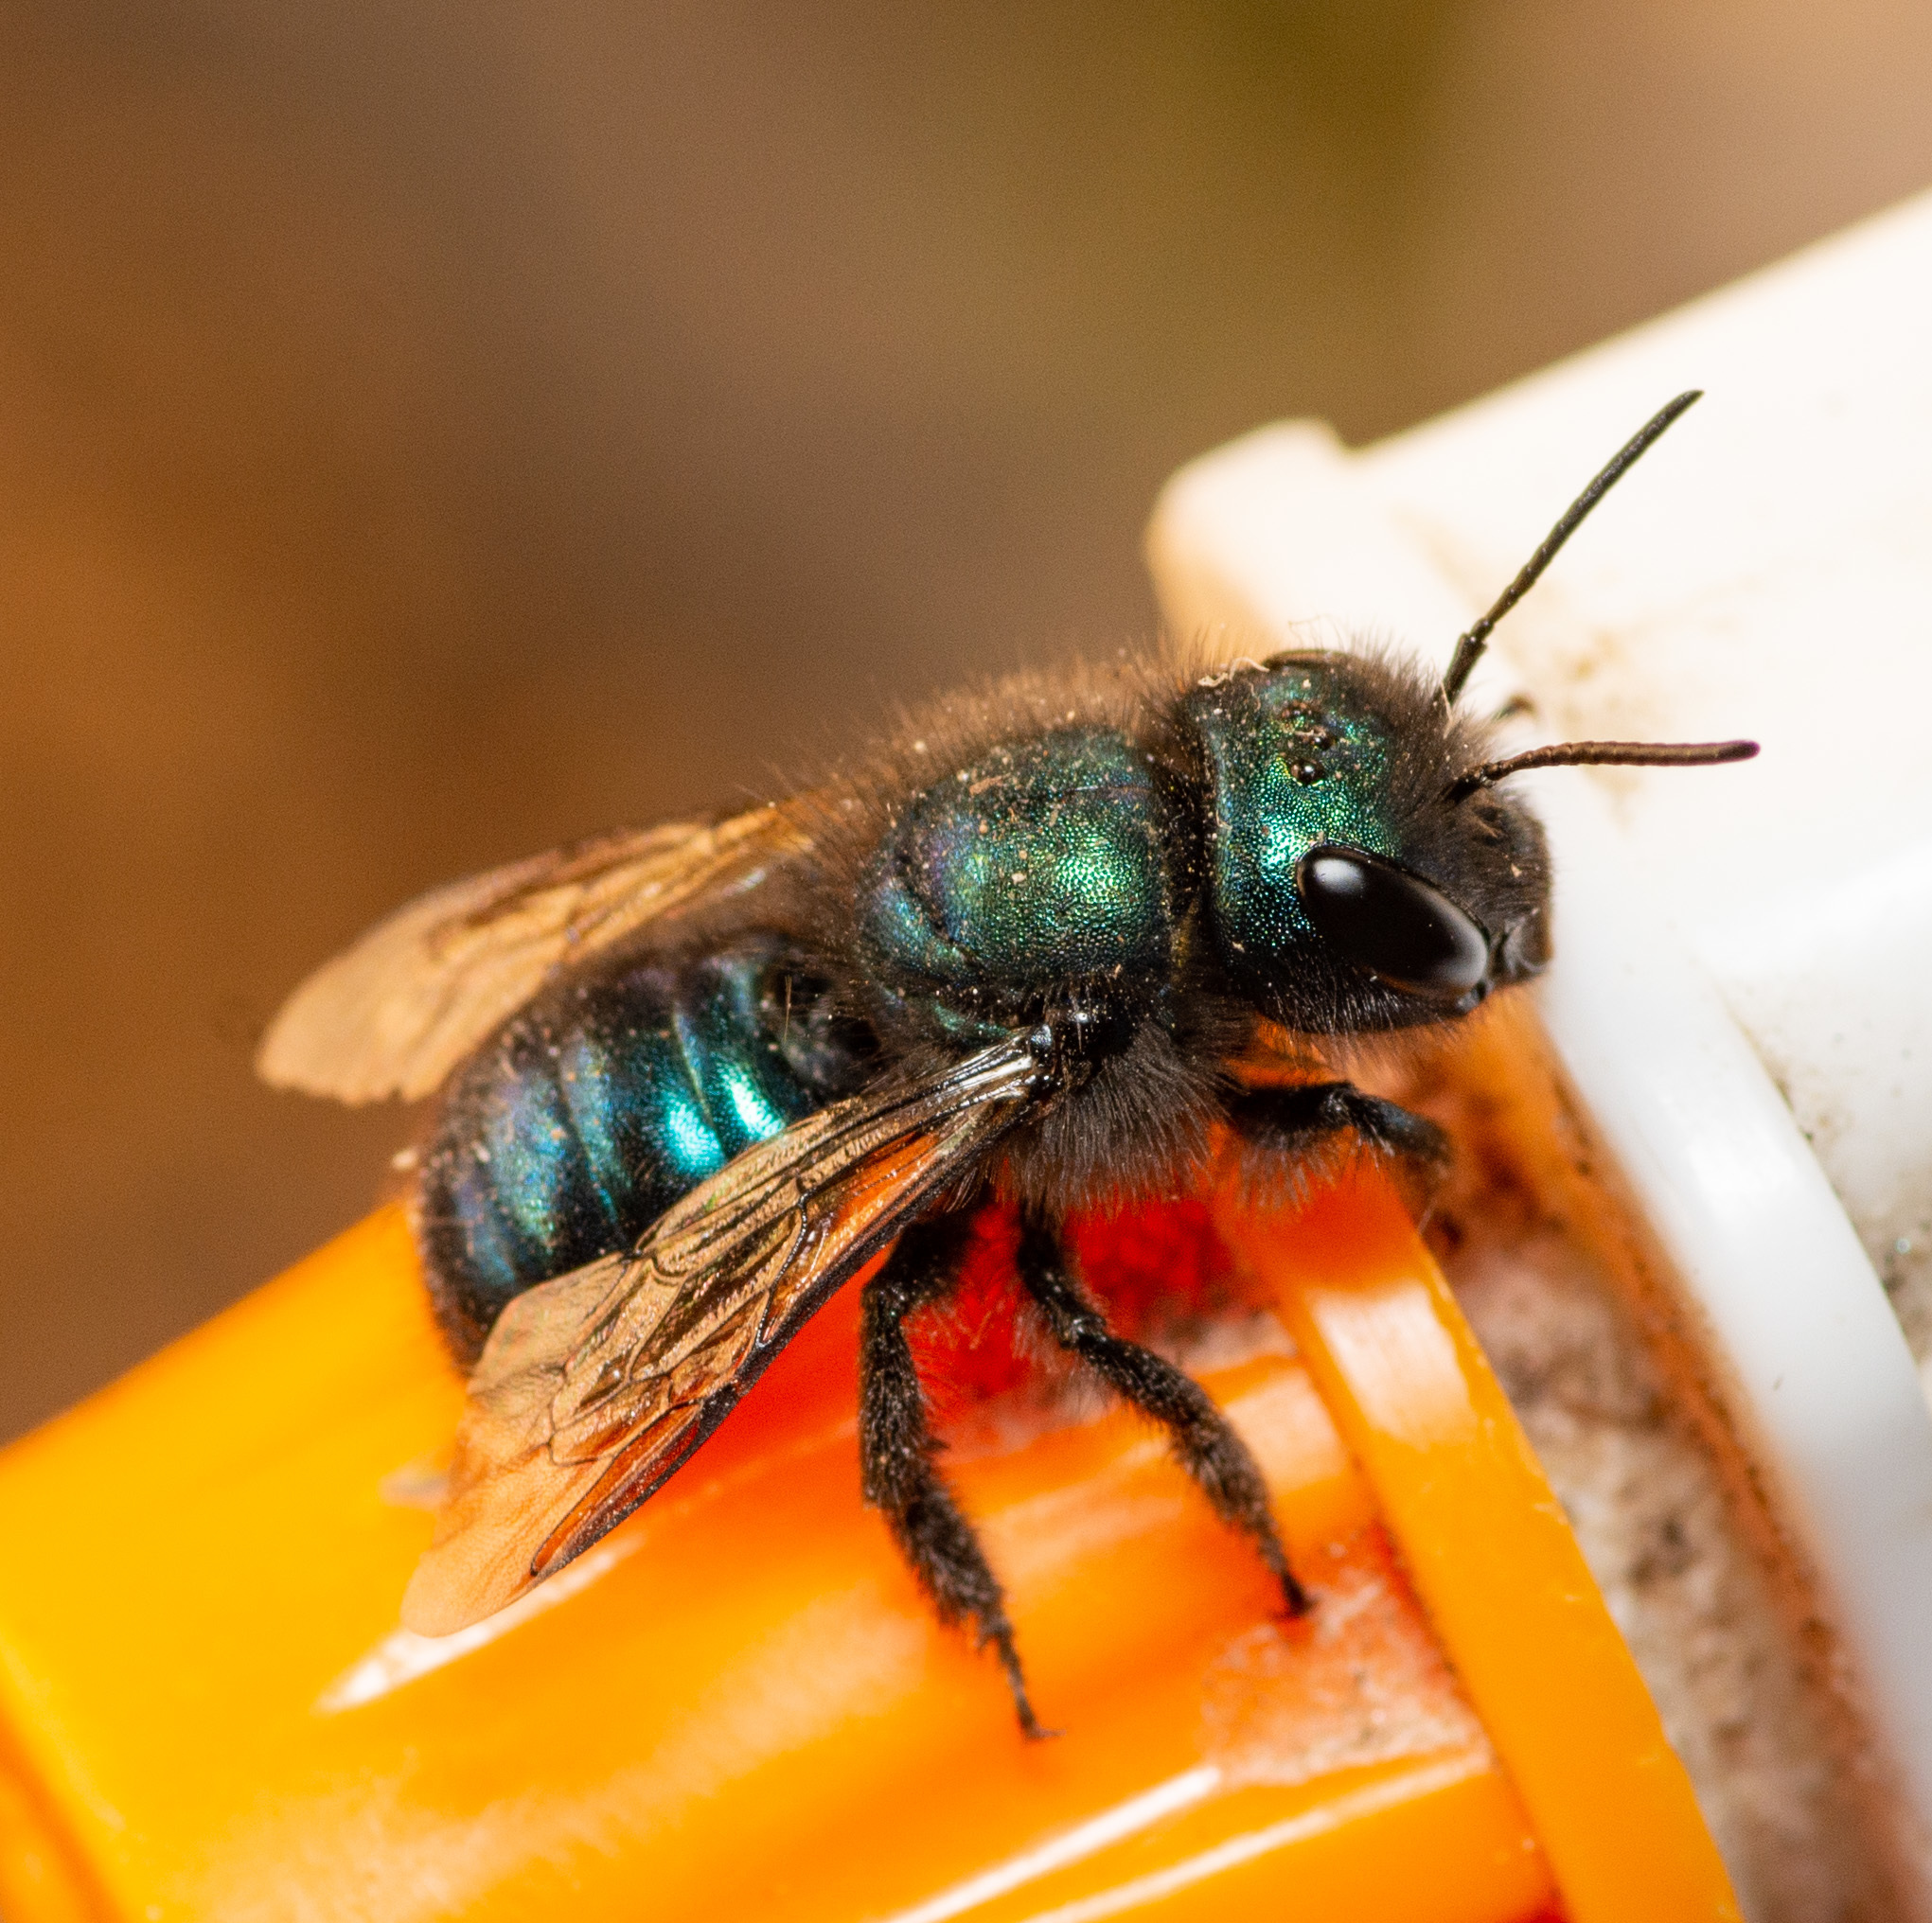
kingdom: Animalia
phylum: Arthropoda
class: Insecta
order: Hymenoptera
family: Megachilidae
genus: Osmia
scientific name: Osmia ribifloris
